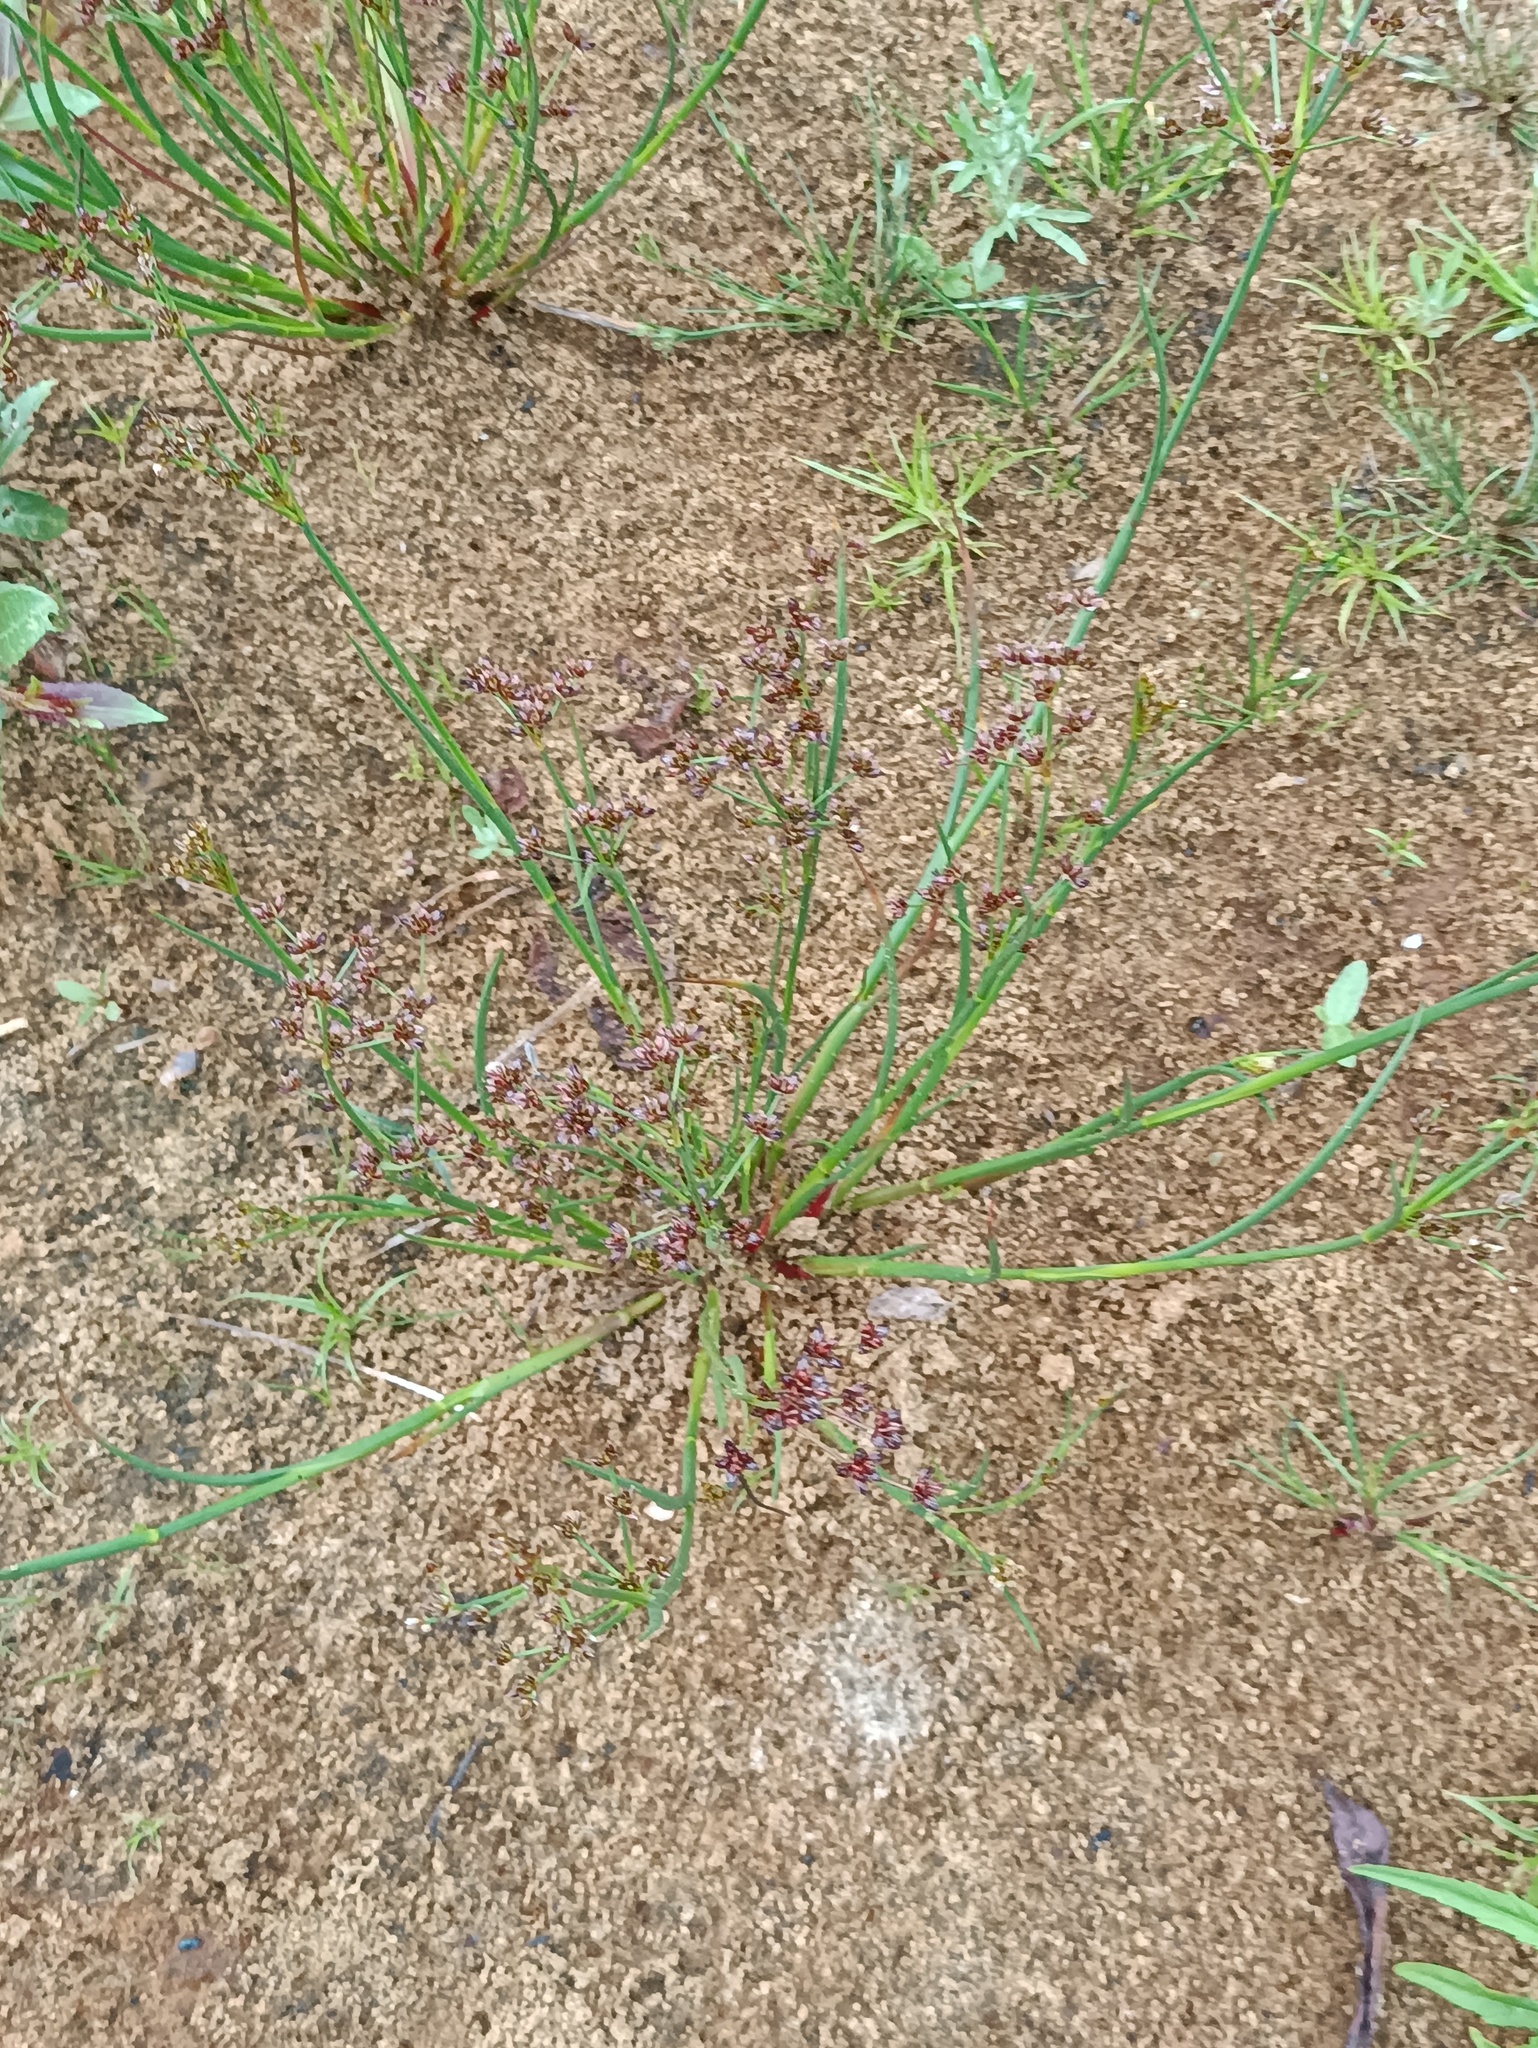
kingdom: Plantae
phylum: Tracheophyta
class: Liliopsida
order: Poales
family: Juncaceae
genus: Juncus
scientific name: Juncus articulatus
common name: Jointed rush
